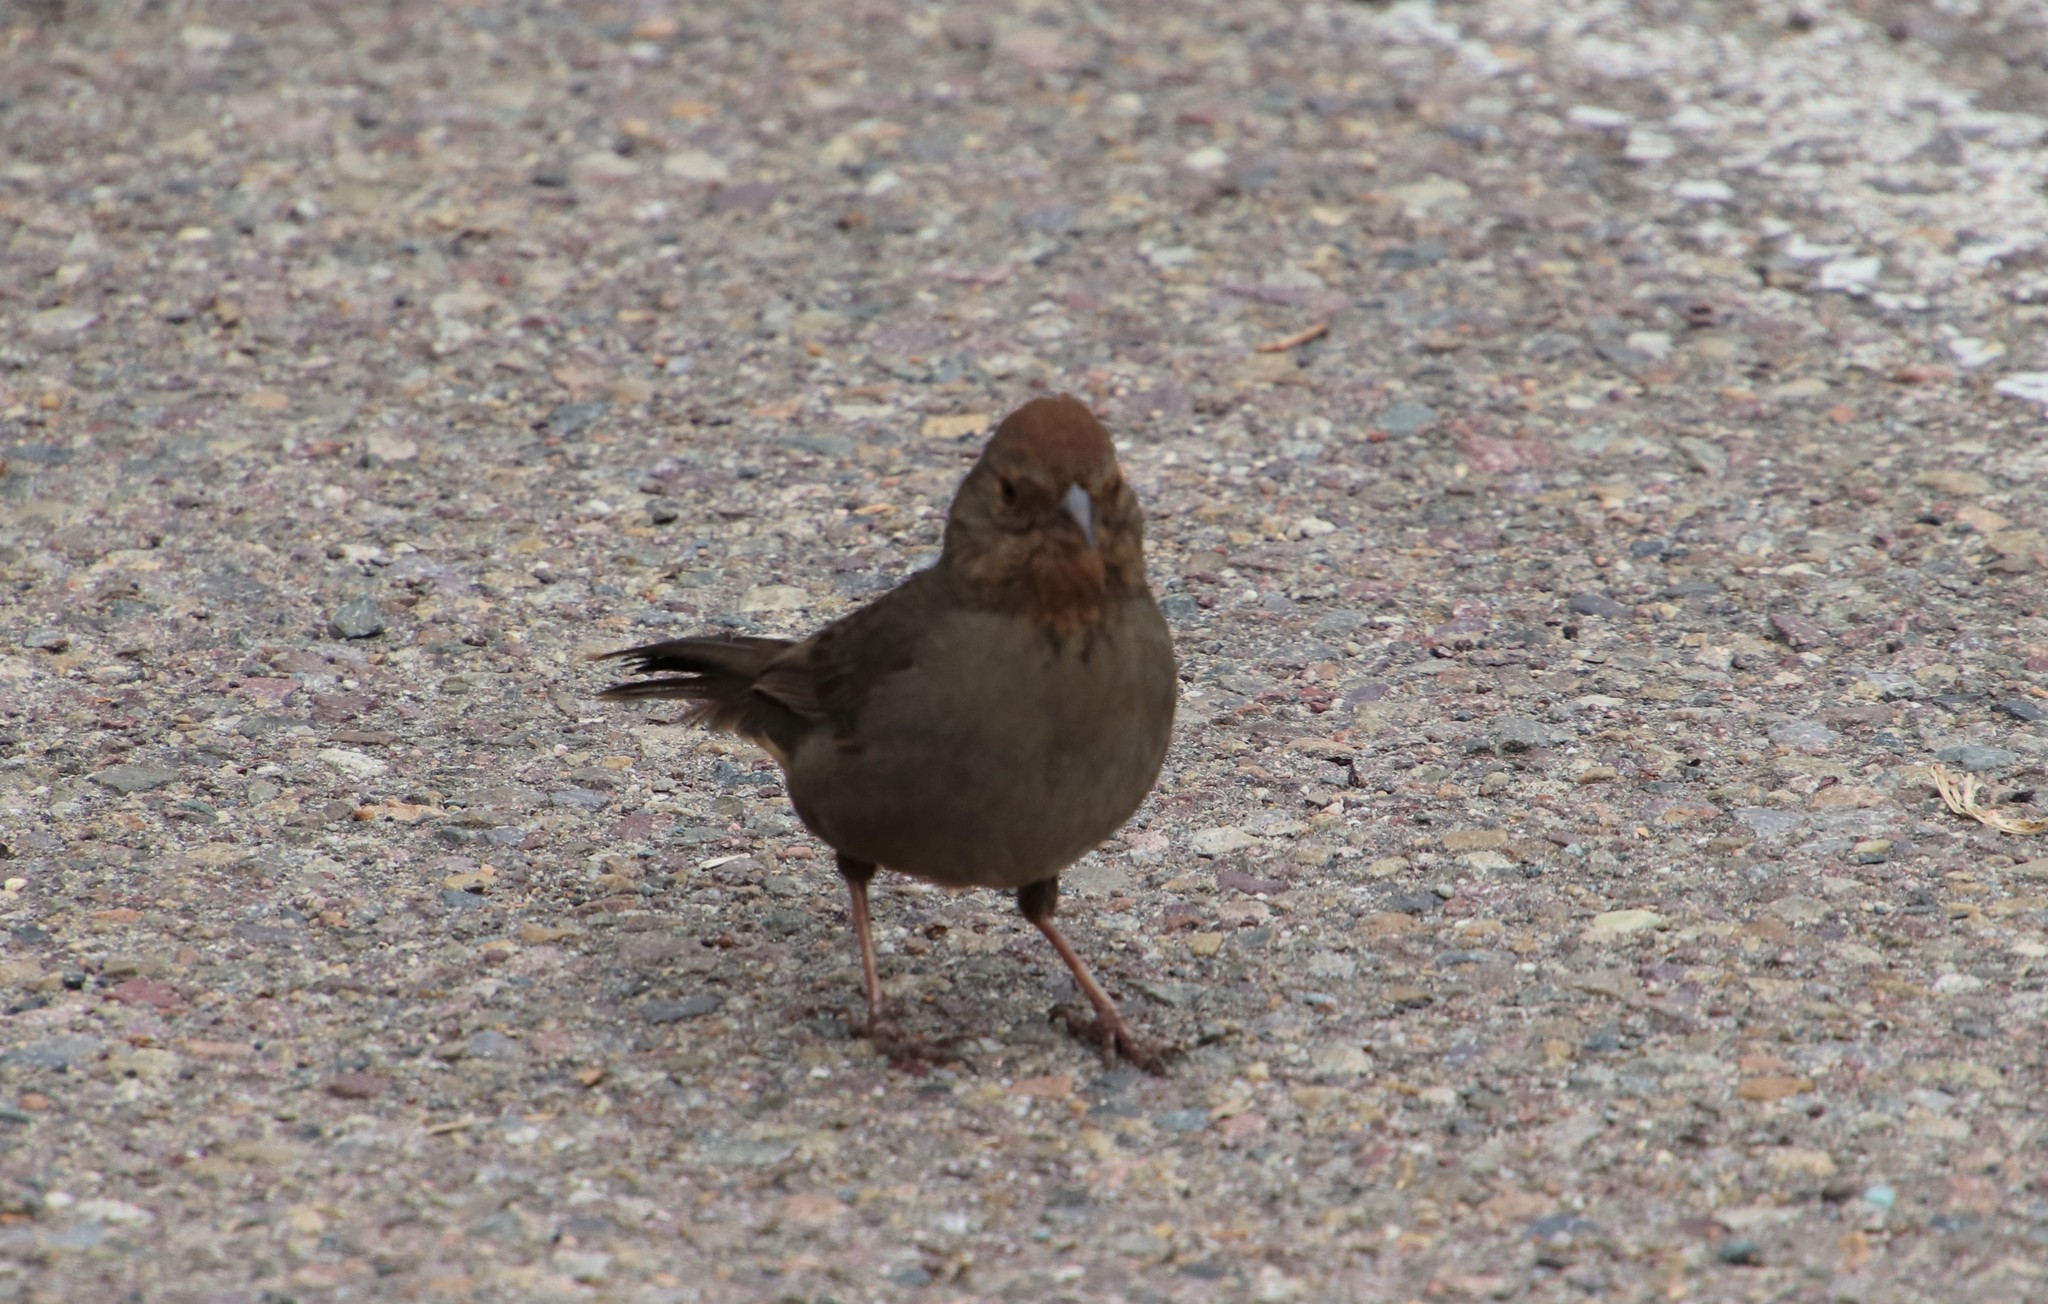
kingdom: Animalia
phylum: Chordata
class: Aves
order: Passeriformes
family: Passerellidae
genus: Melozone
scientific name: Melozone crissalis
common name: California towhee
